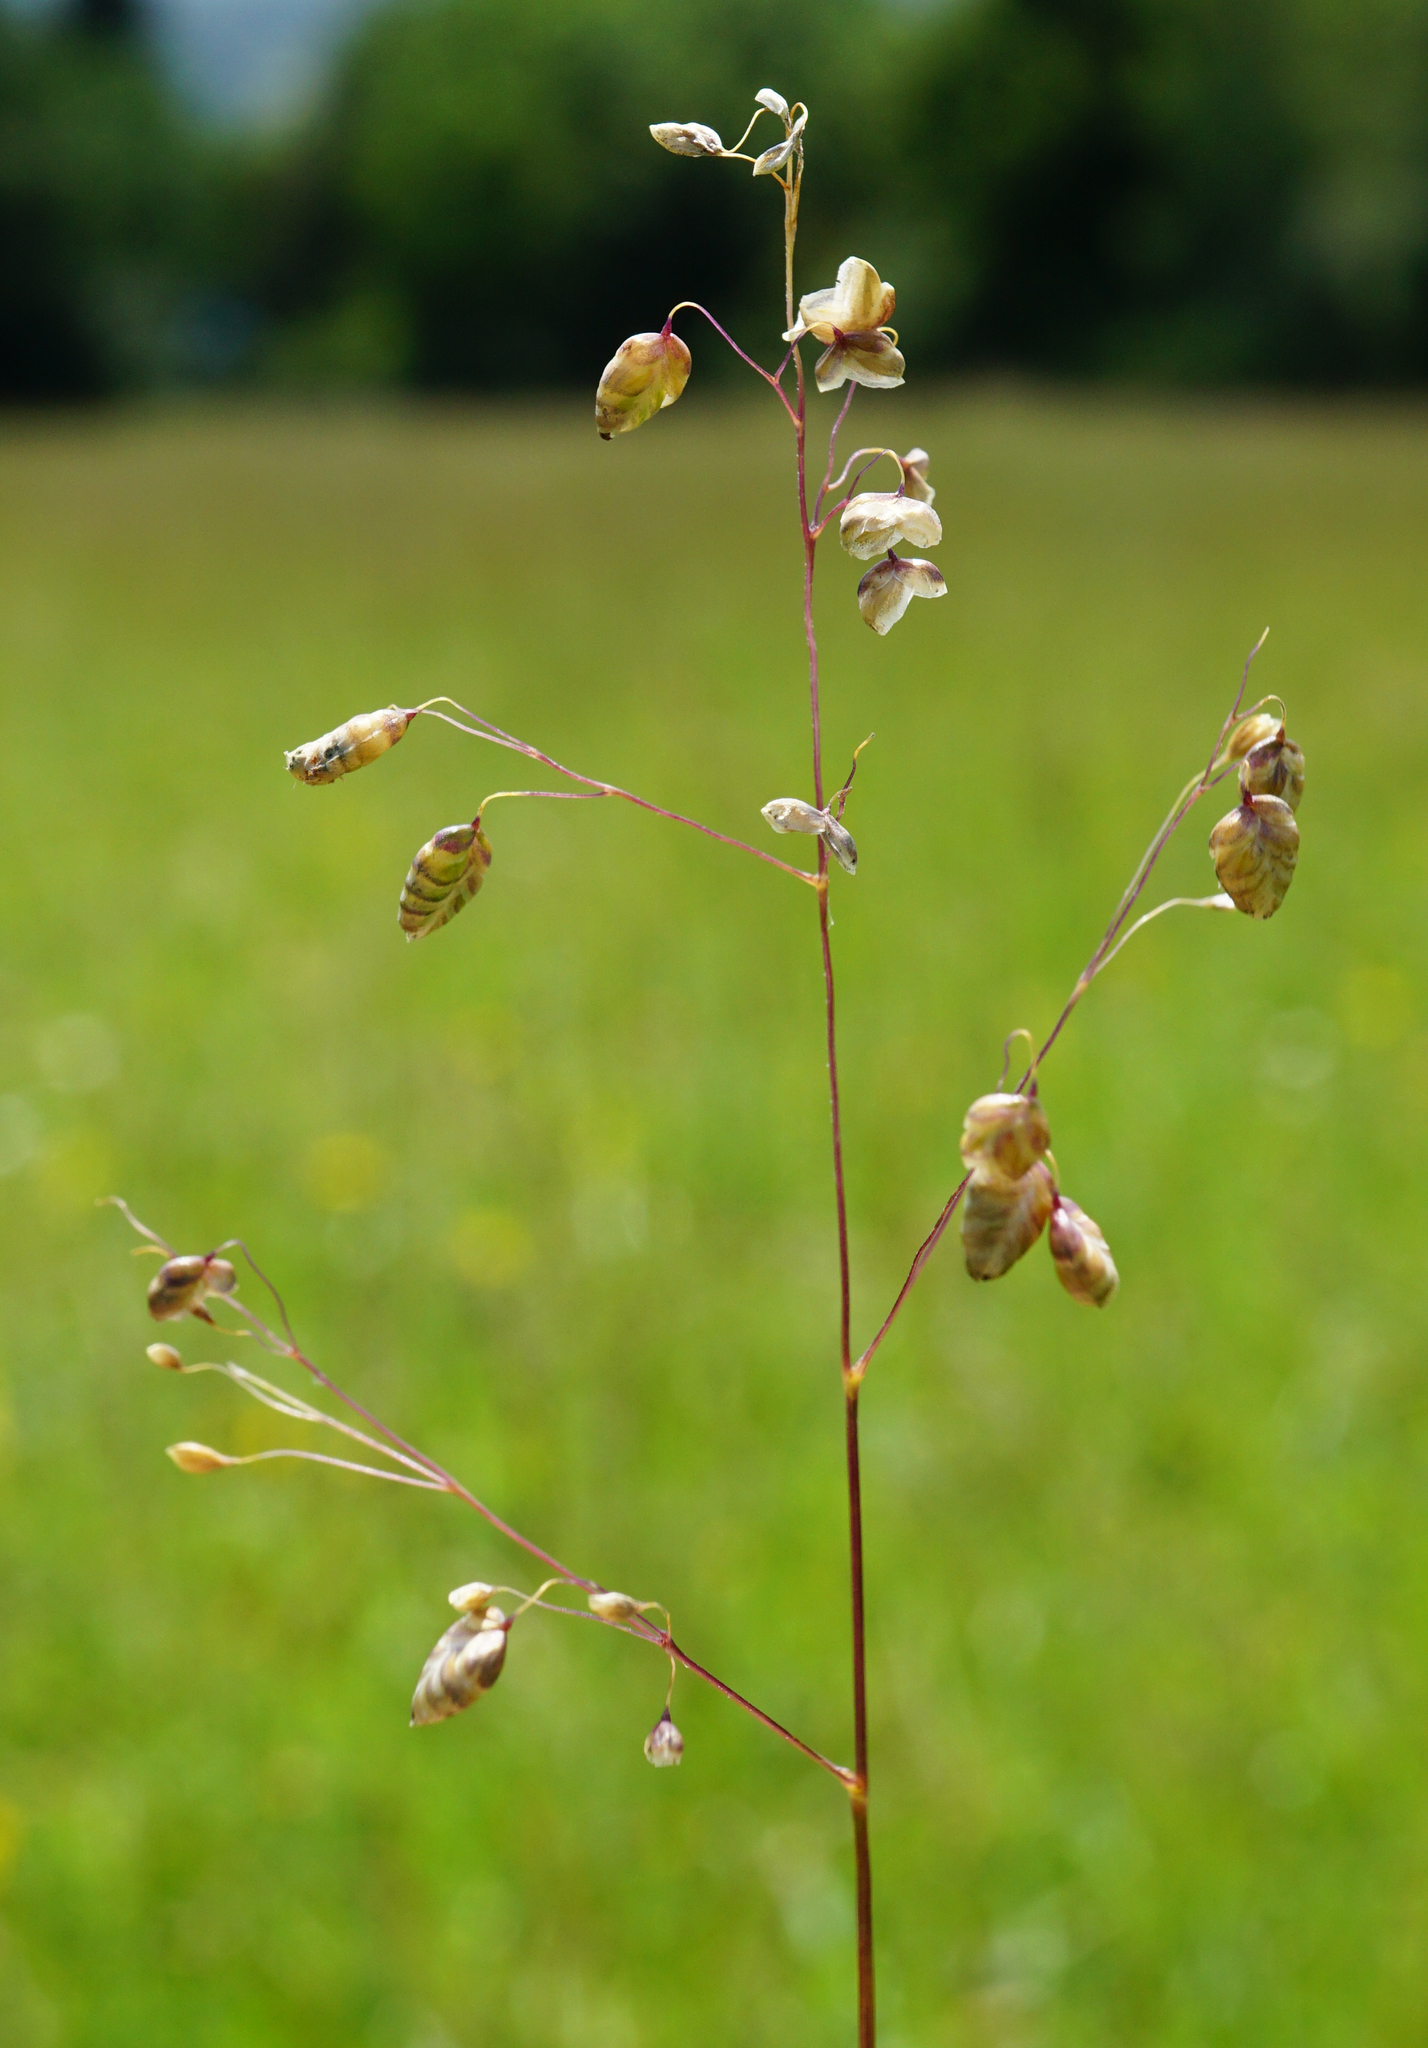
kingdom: Plantae
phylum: Tracheophyta
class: Liliopsida
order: Poales
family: Poaceae
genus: Briza
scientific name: Briza media
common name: Quaking grass
